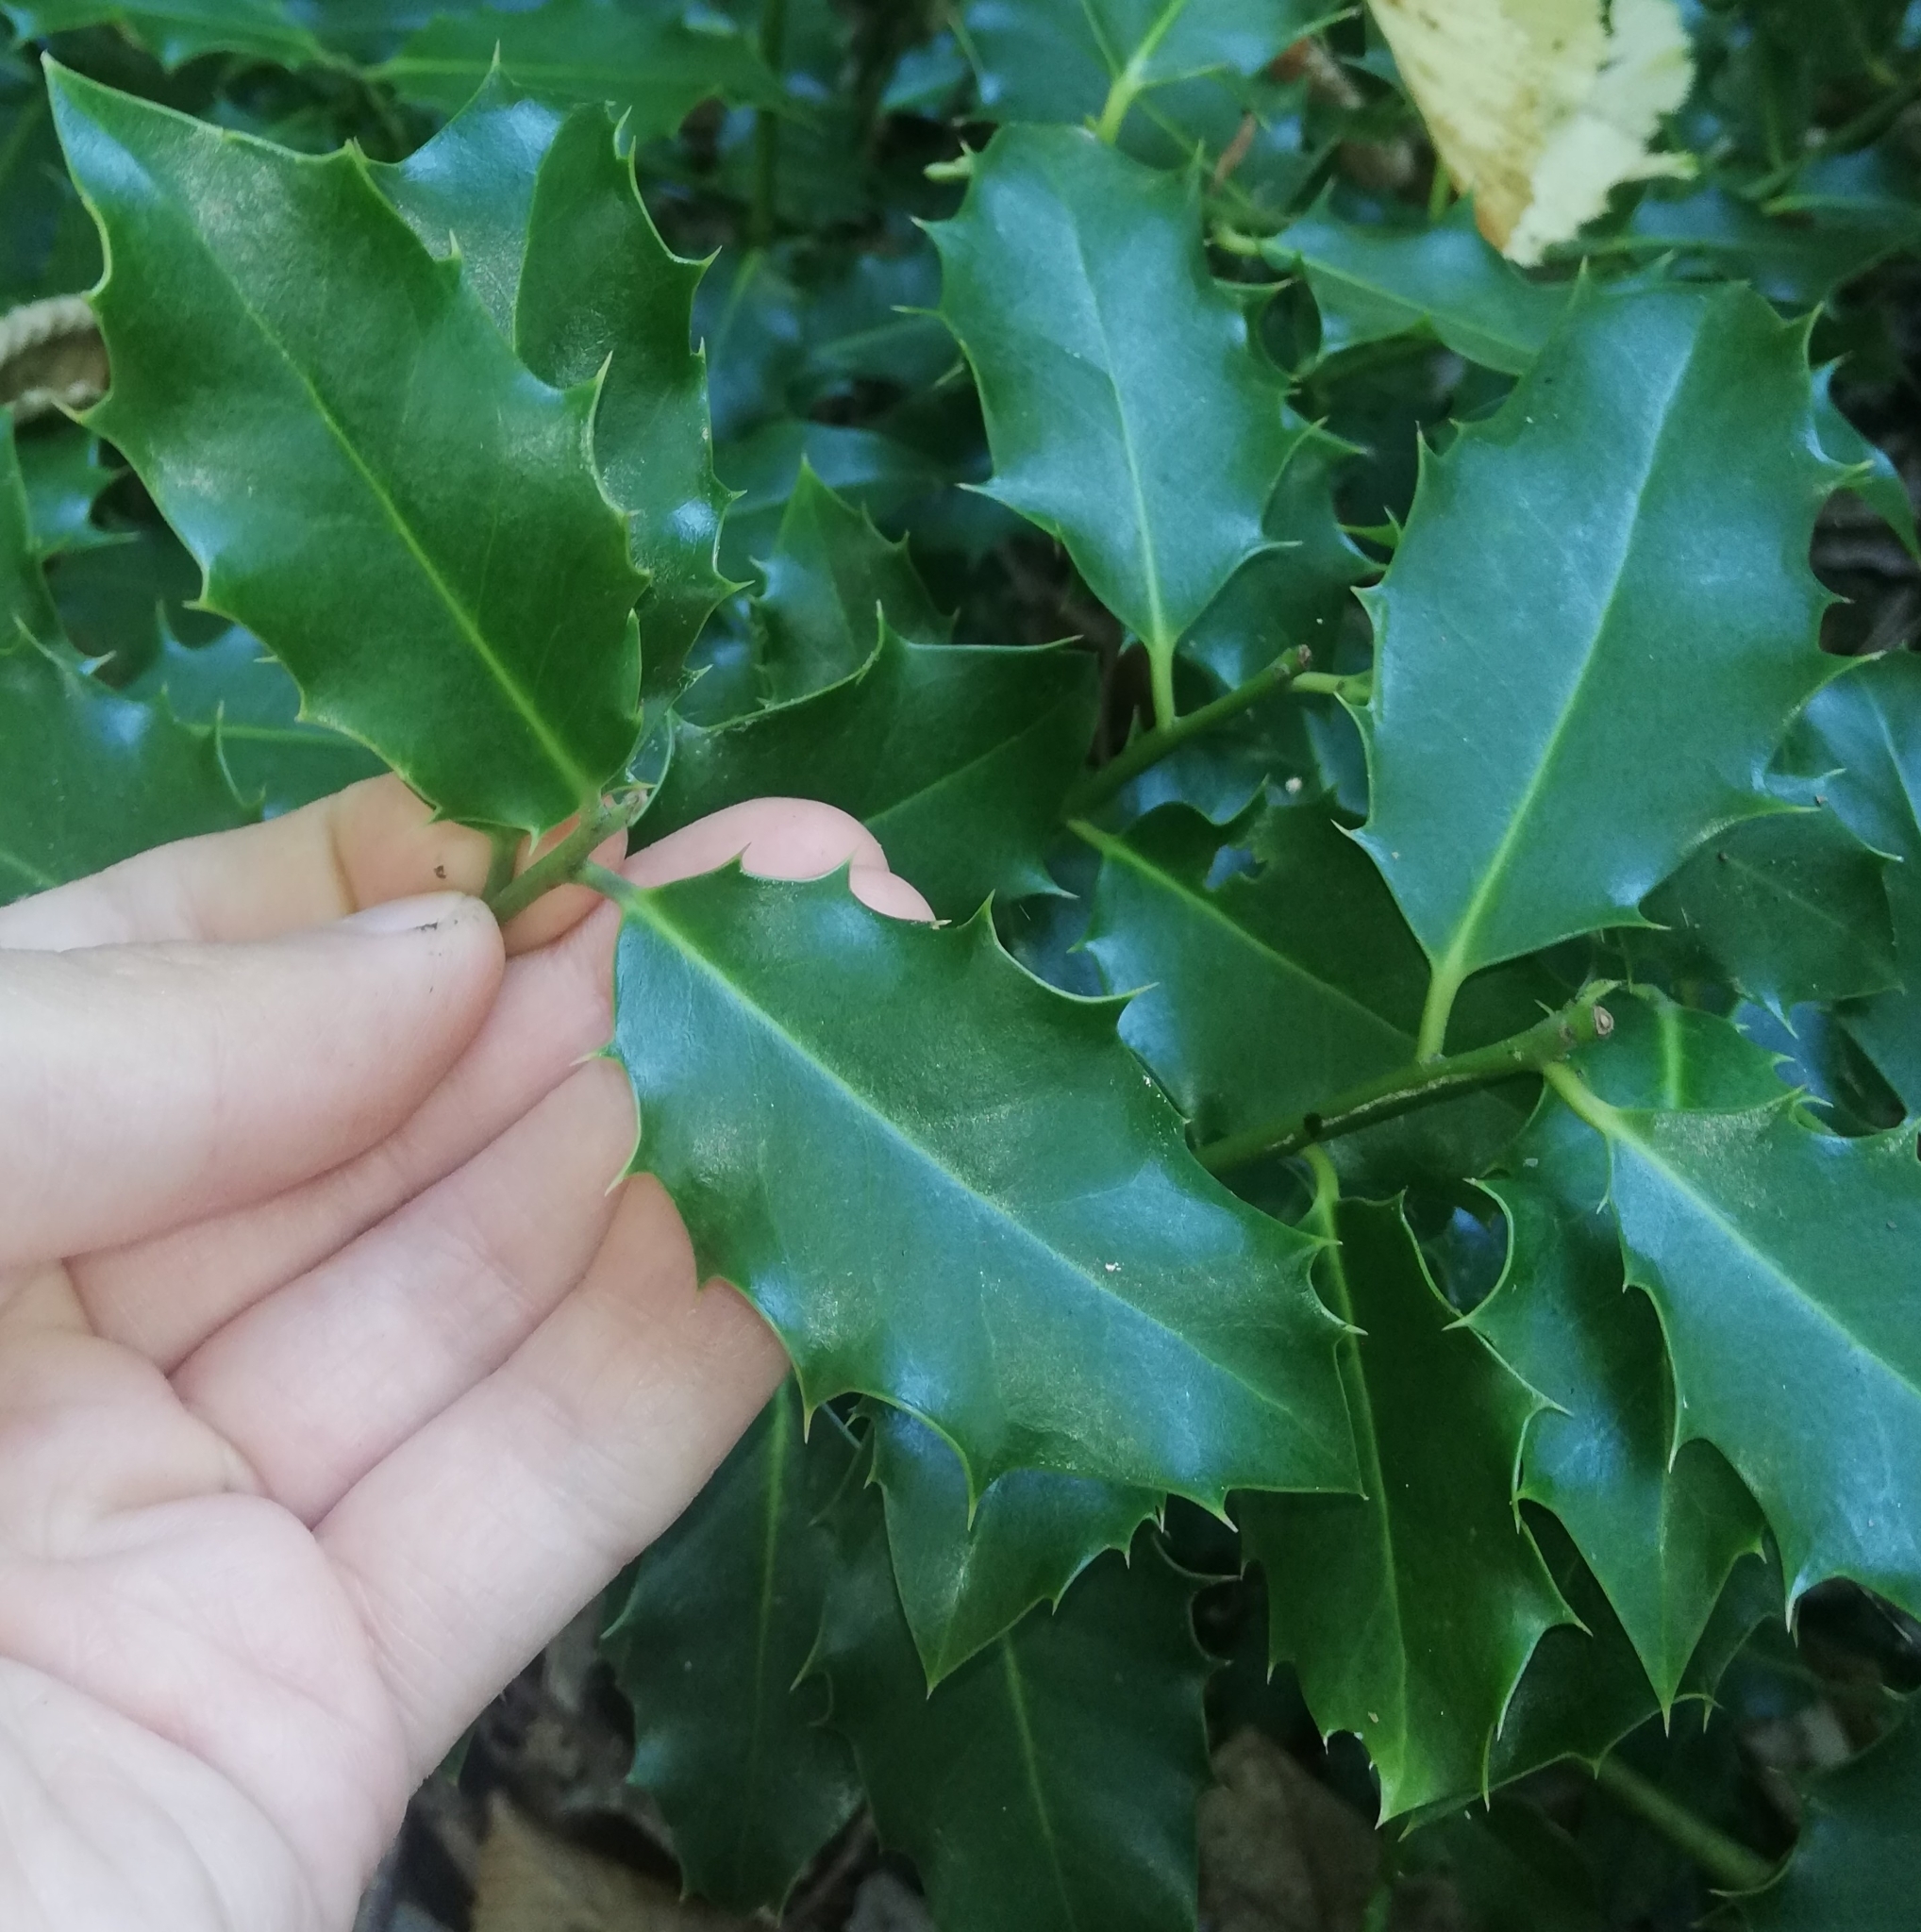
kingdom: Plantae
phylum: Tracheophyta
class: Magnoliopsida
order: Aquifoliales
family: Aquifoliaceae
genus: Ilex
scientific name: Ilex aquifolium
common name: English holly
